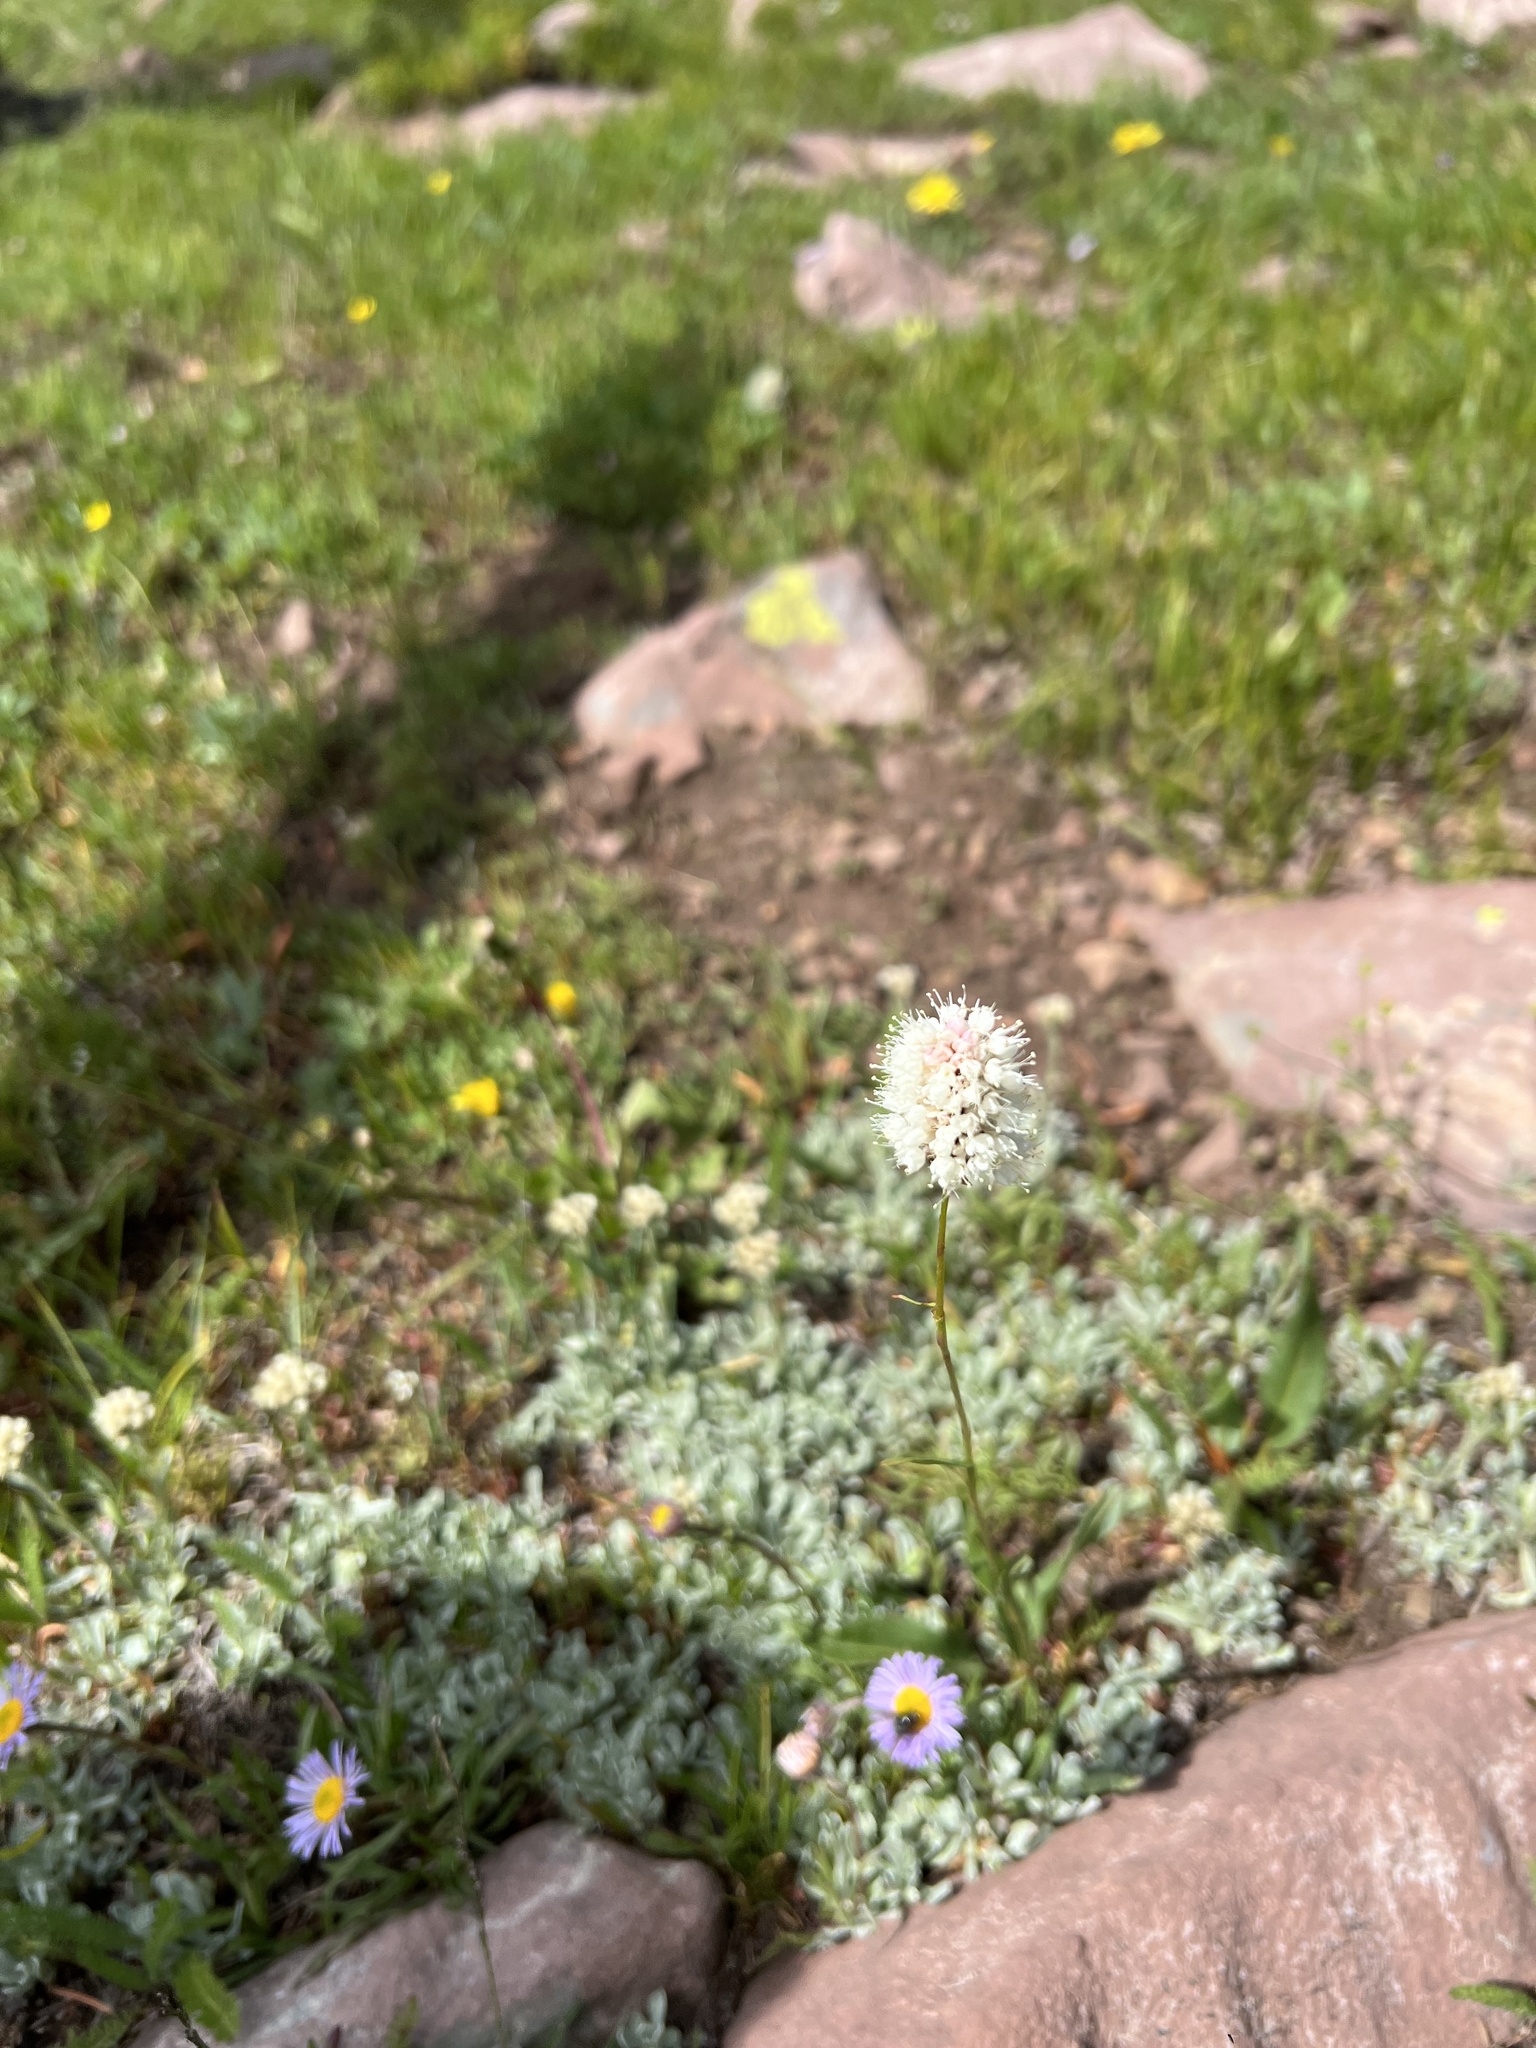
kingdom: Plantae
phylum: Tracheophyta
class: Magnoliopsida
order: Caryophyllales
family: Polygonaceae
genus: Bistorta
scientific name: Bistorta bistortoides
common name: American bistort
